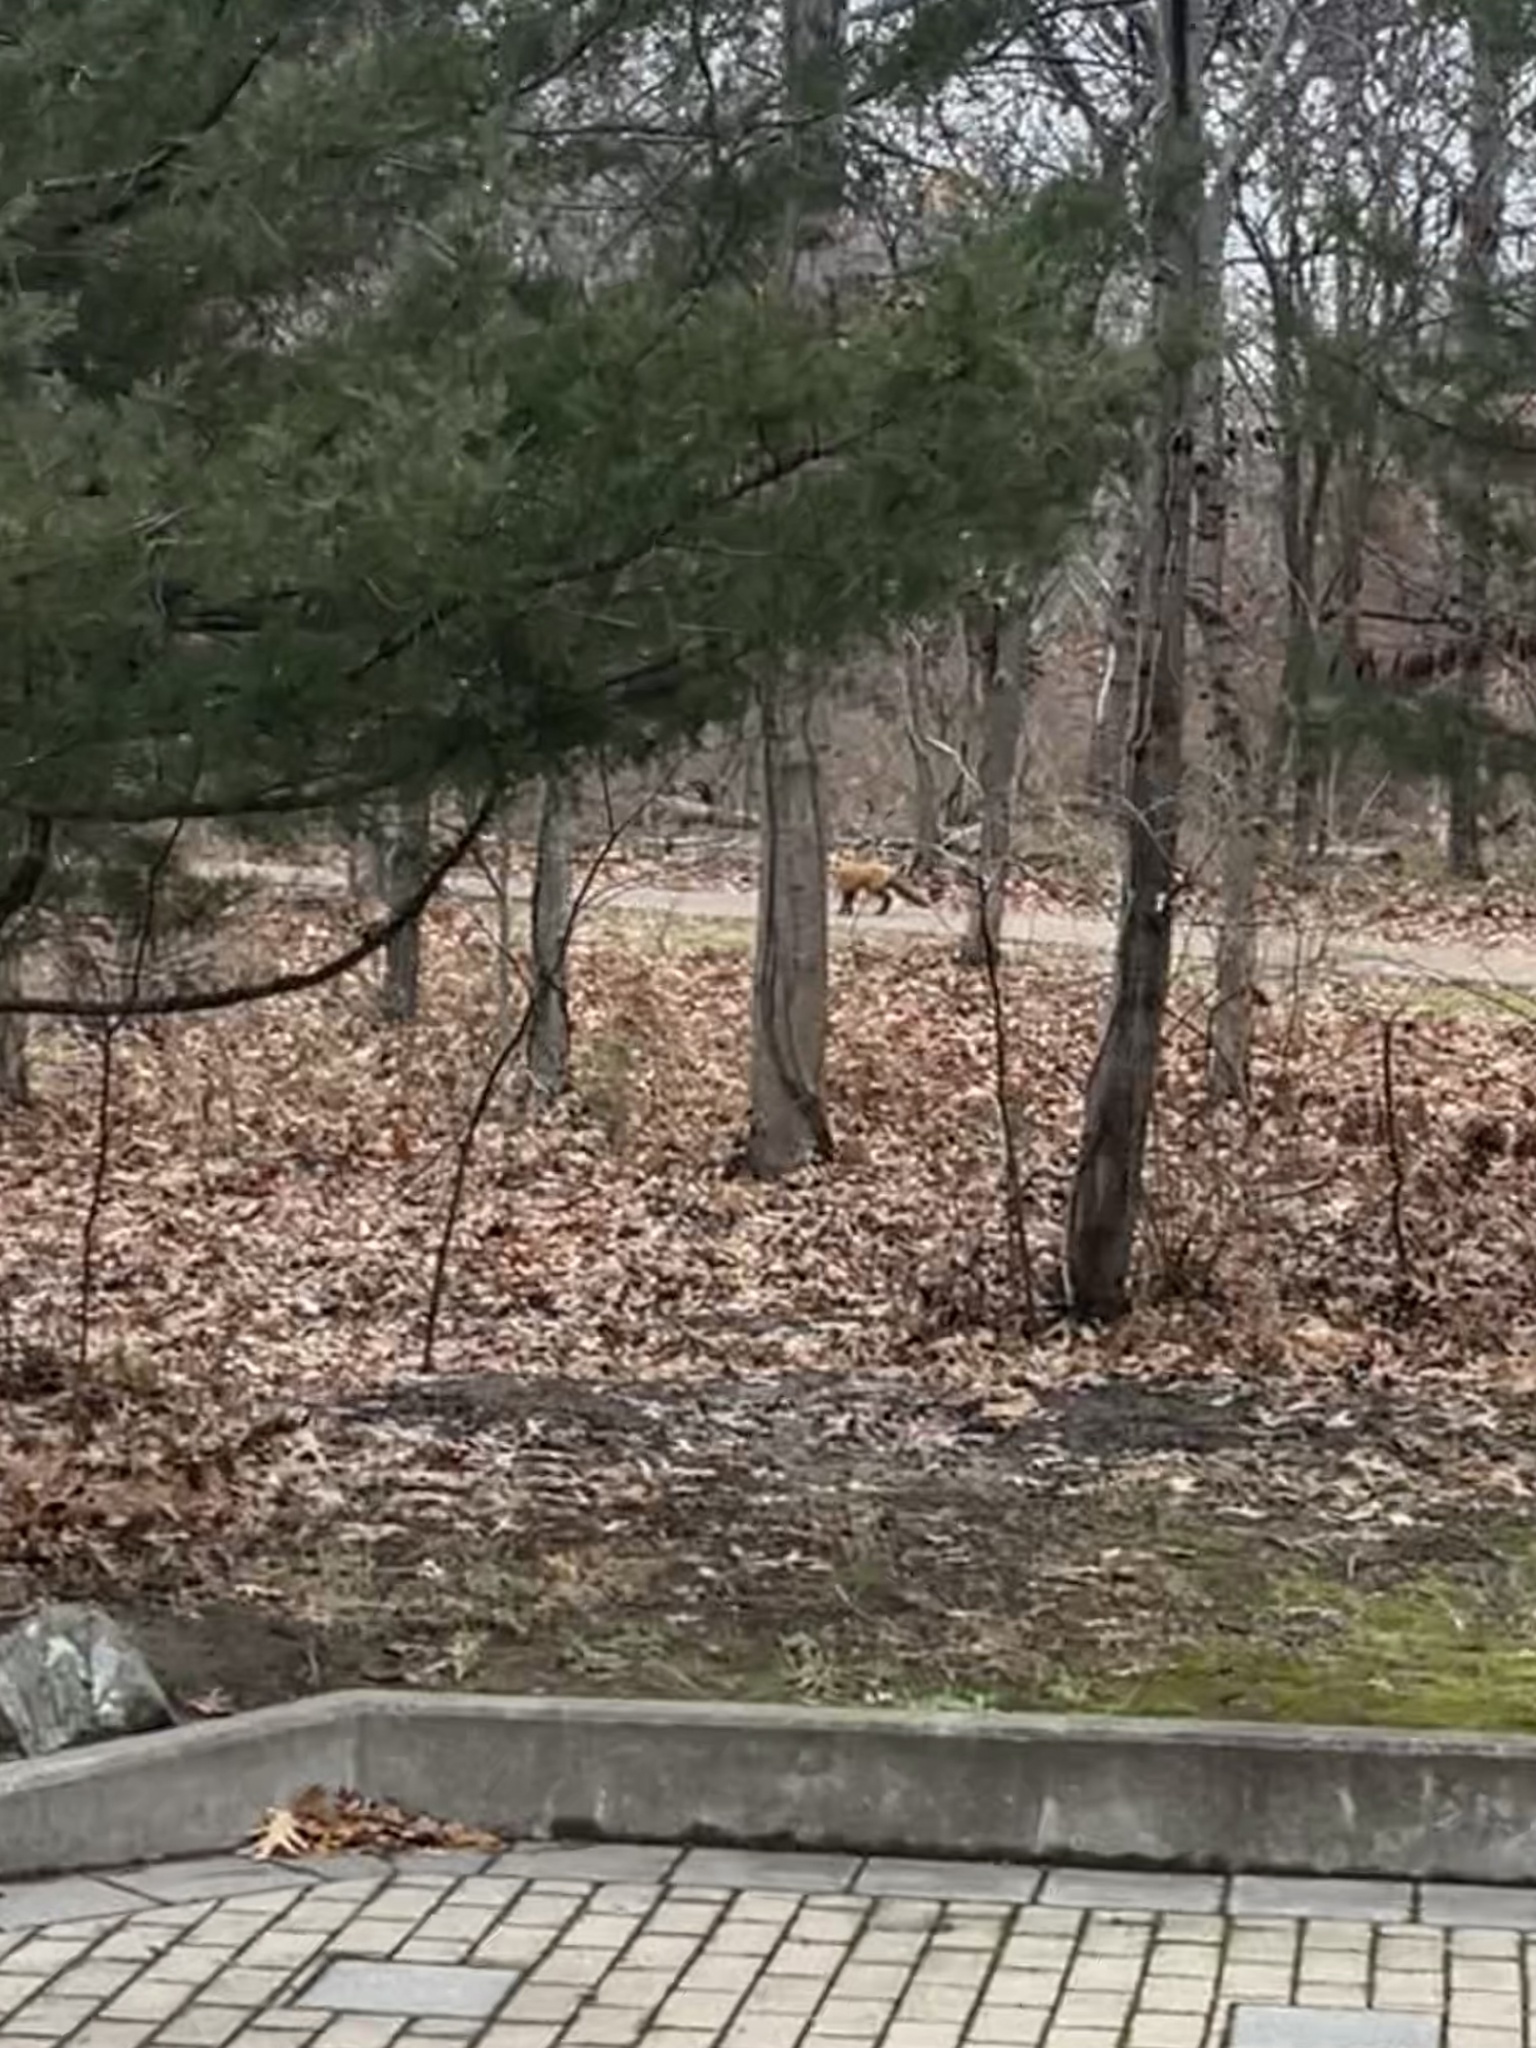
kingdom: Animalia
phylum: Chordata
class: Mammalia
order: Carnivora
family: Canidae
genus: Vulpes
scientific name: Vulpes vulpes
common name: Red fox
